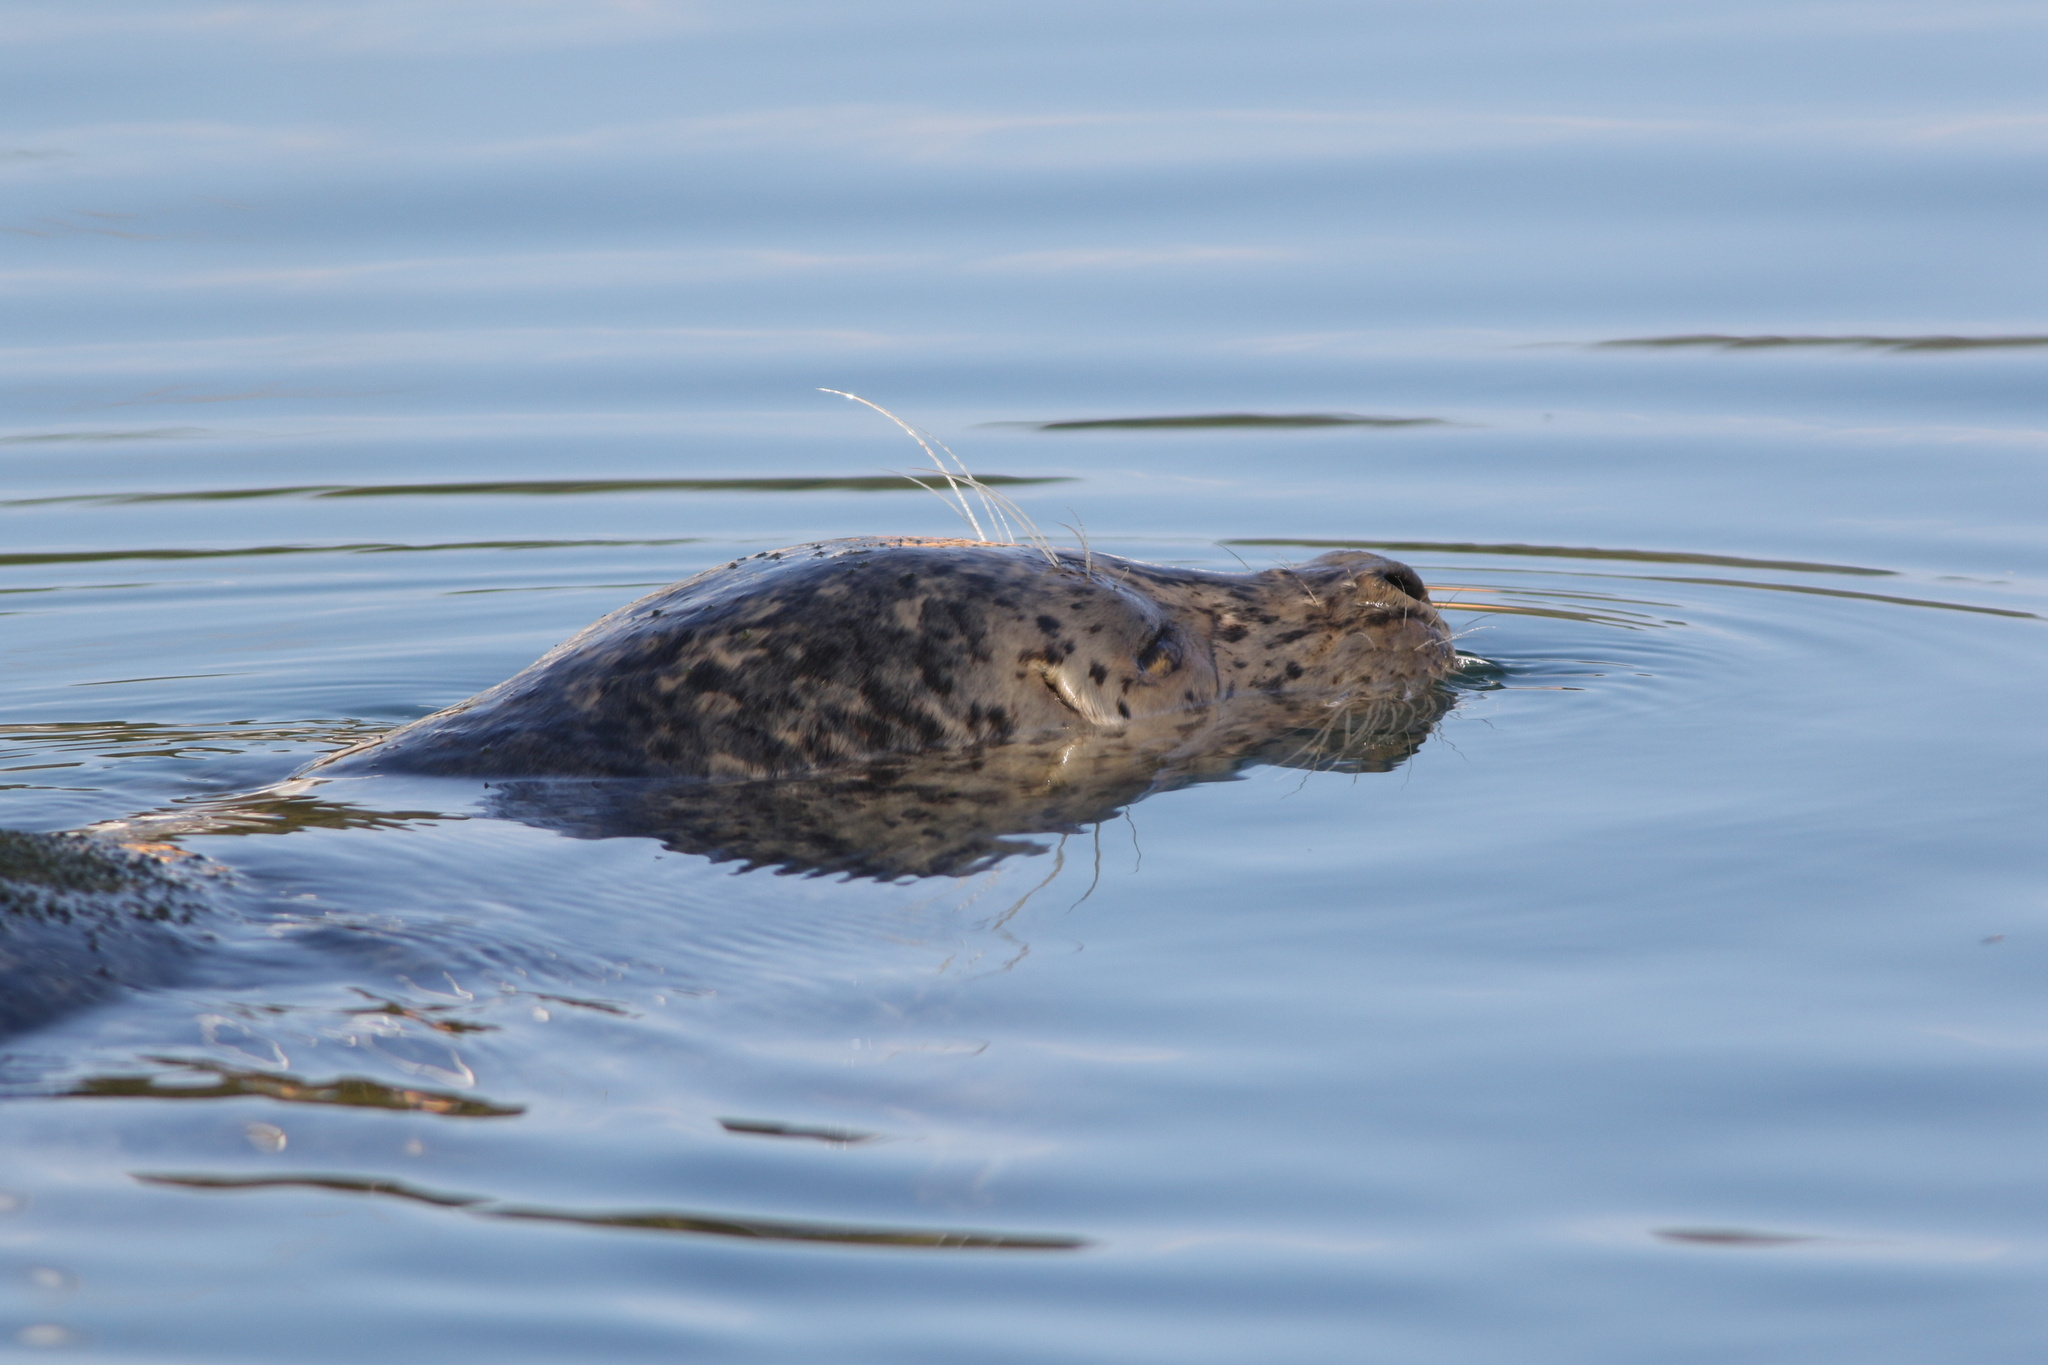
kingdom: Animalia
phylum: Chordata
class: Mammalia
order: Carnivora
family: Phocidae
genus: Phoca
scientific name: Phoca vitulina
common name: Harbor seal
